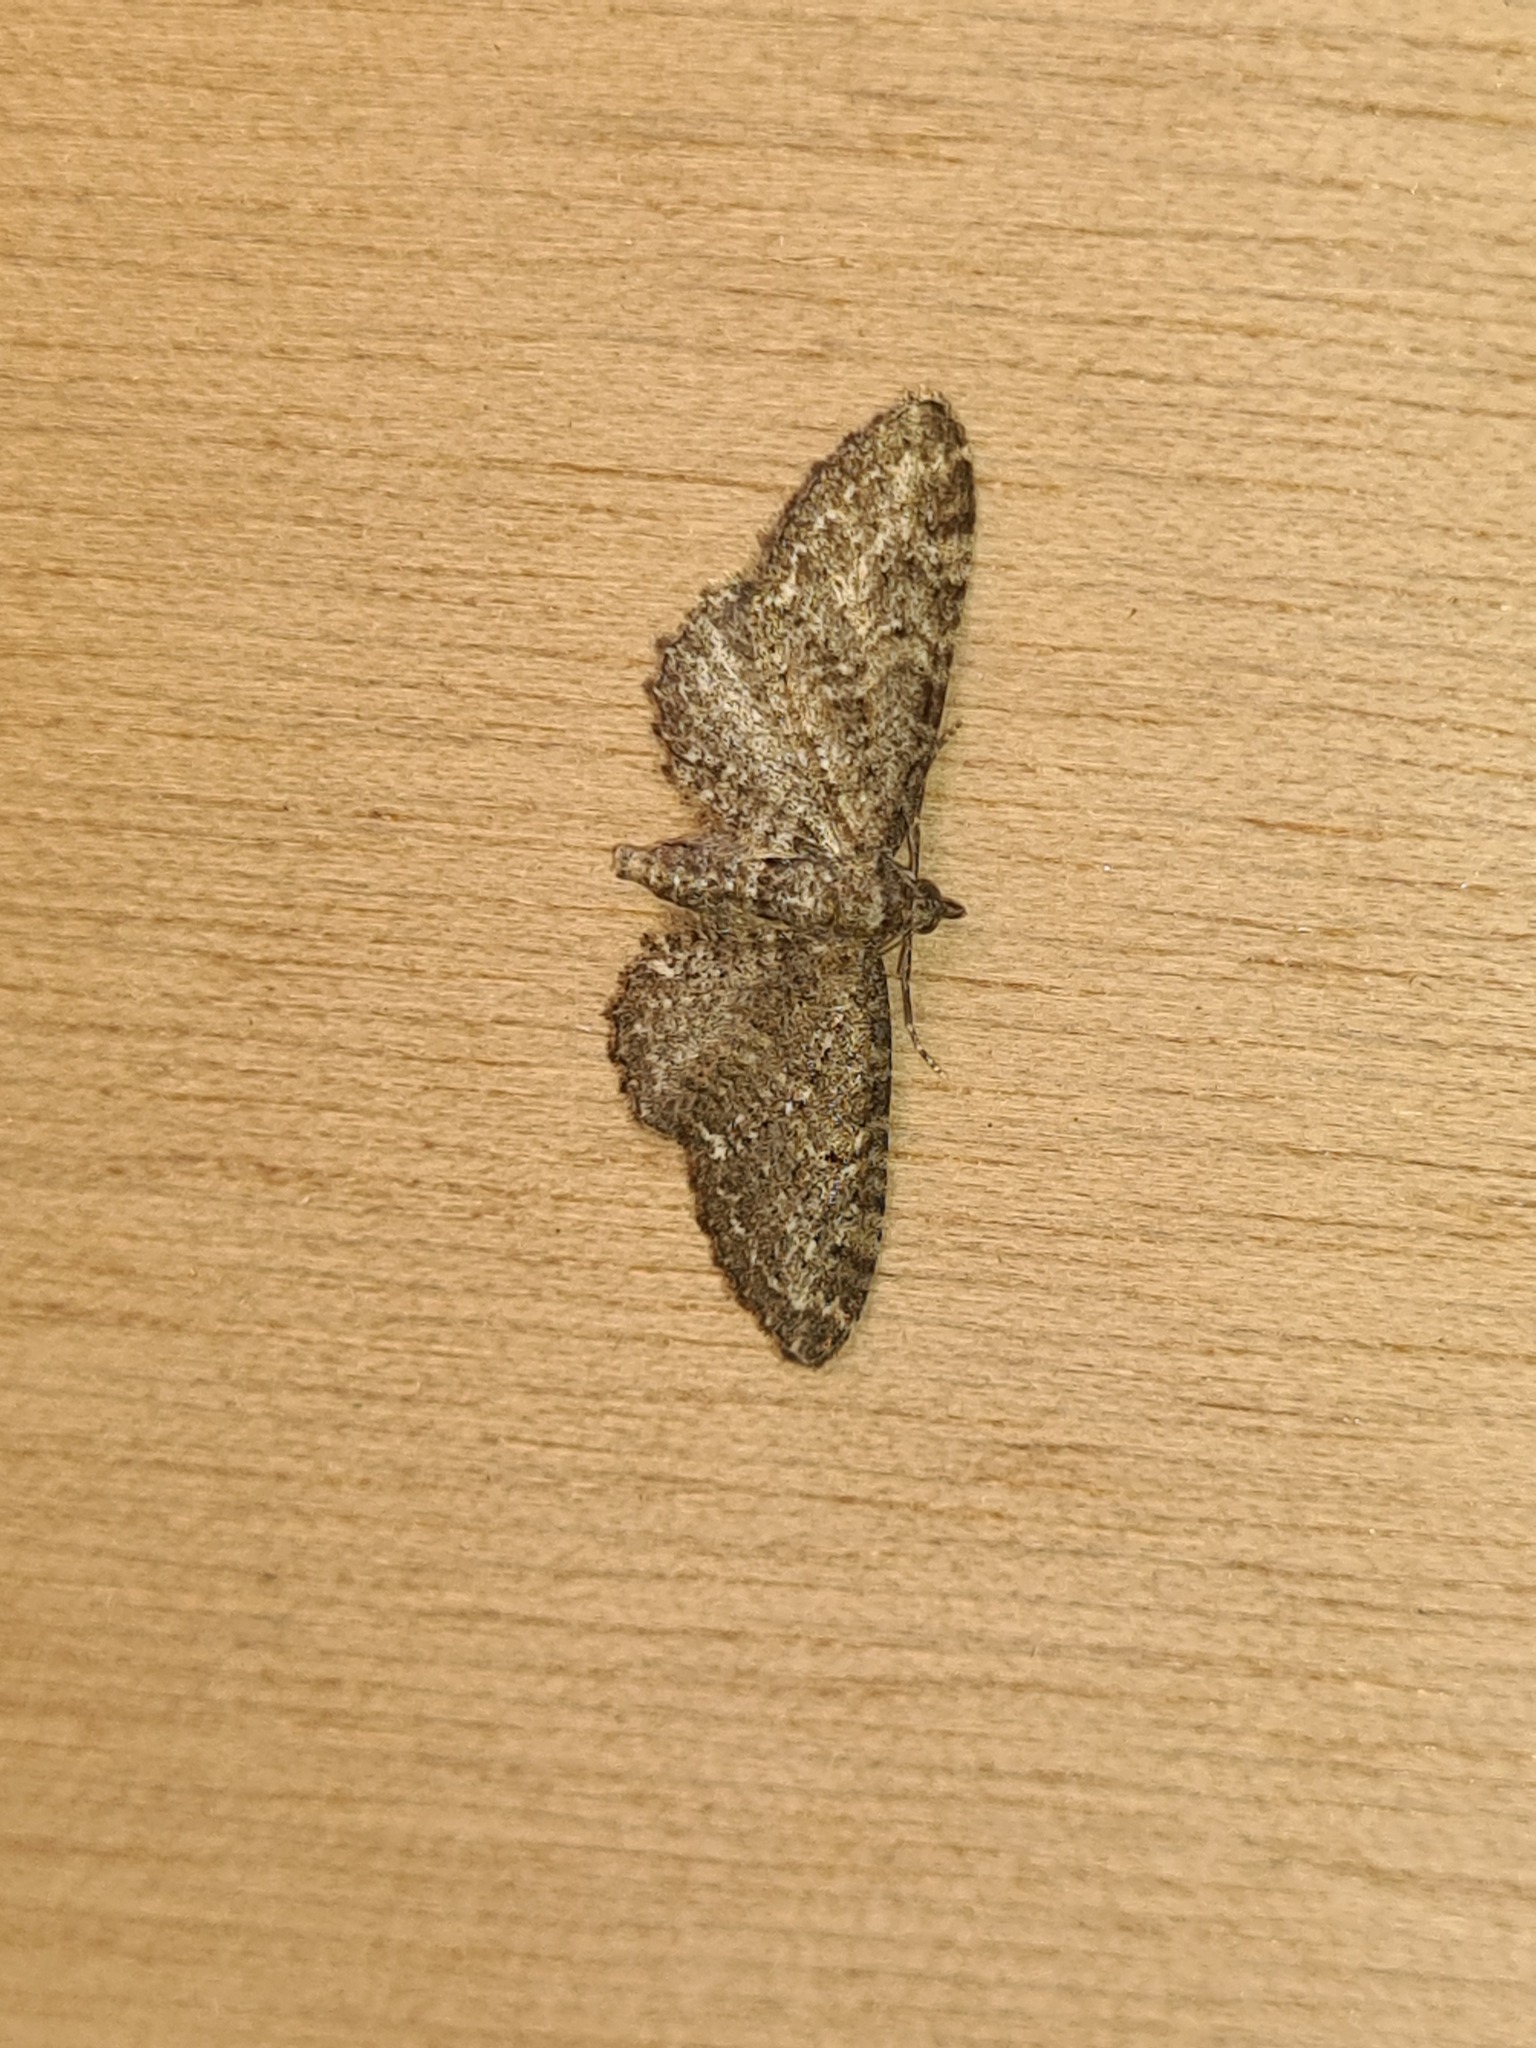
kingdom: Animalia
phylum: Arthropoda
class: Insecta
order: Lepidoptera
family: Geometridae
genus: Eupithecia
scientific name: Eupithecia vulgata
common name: Common pug
